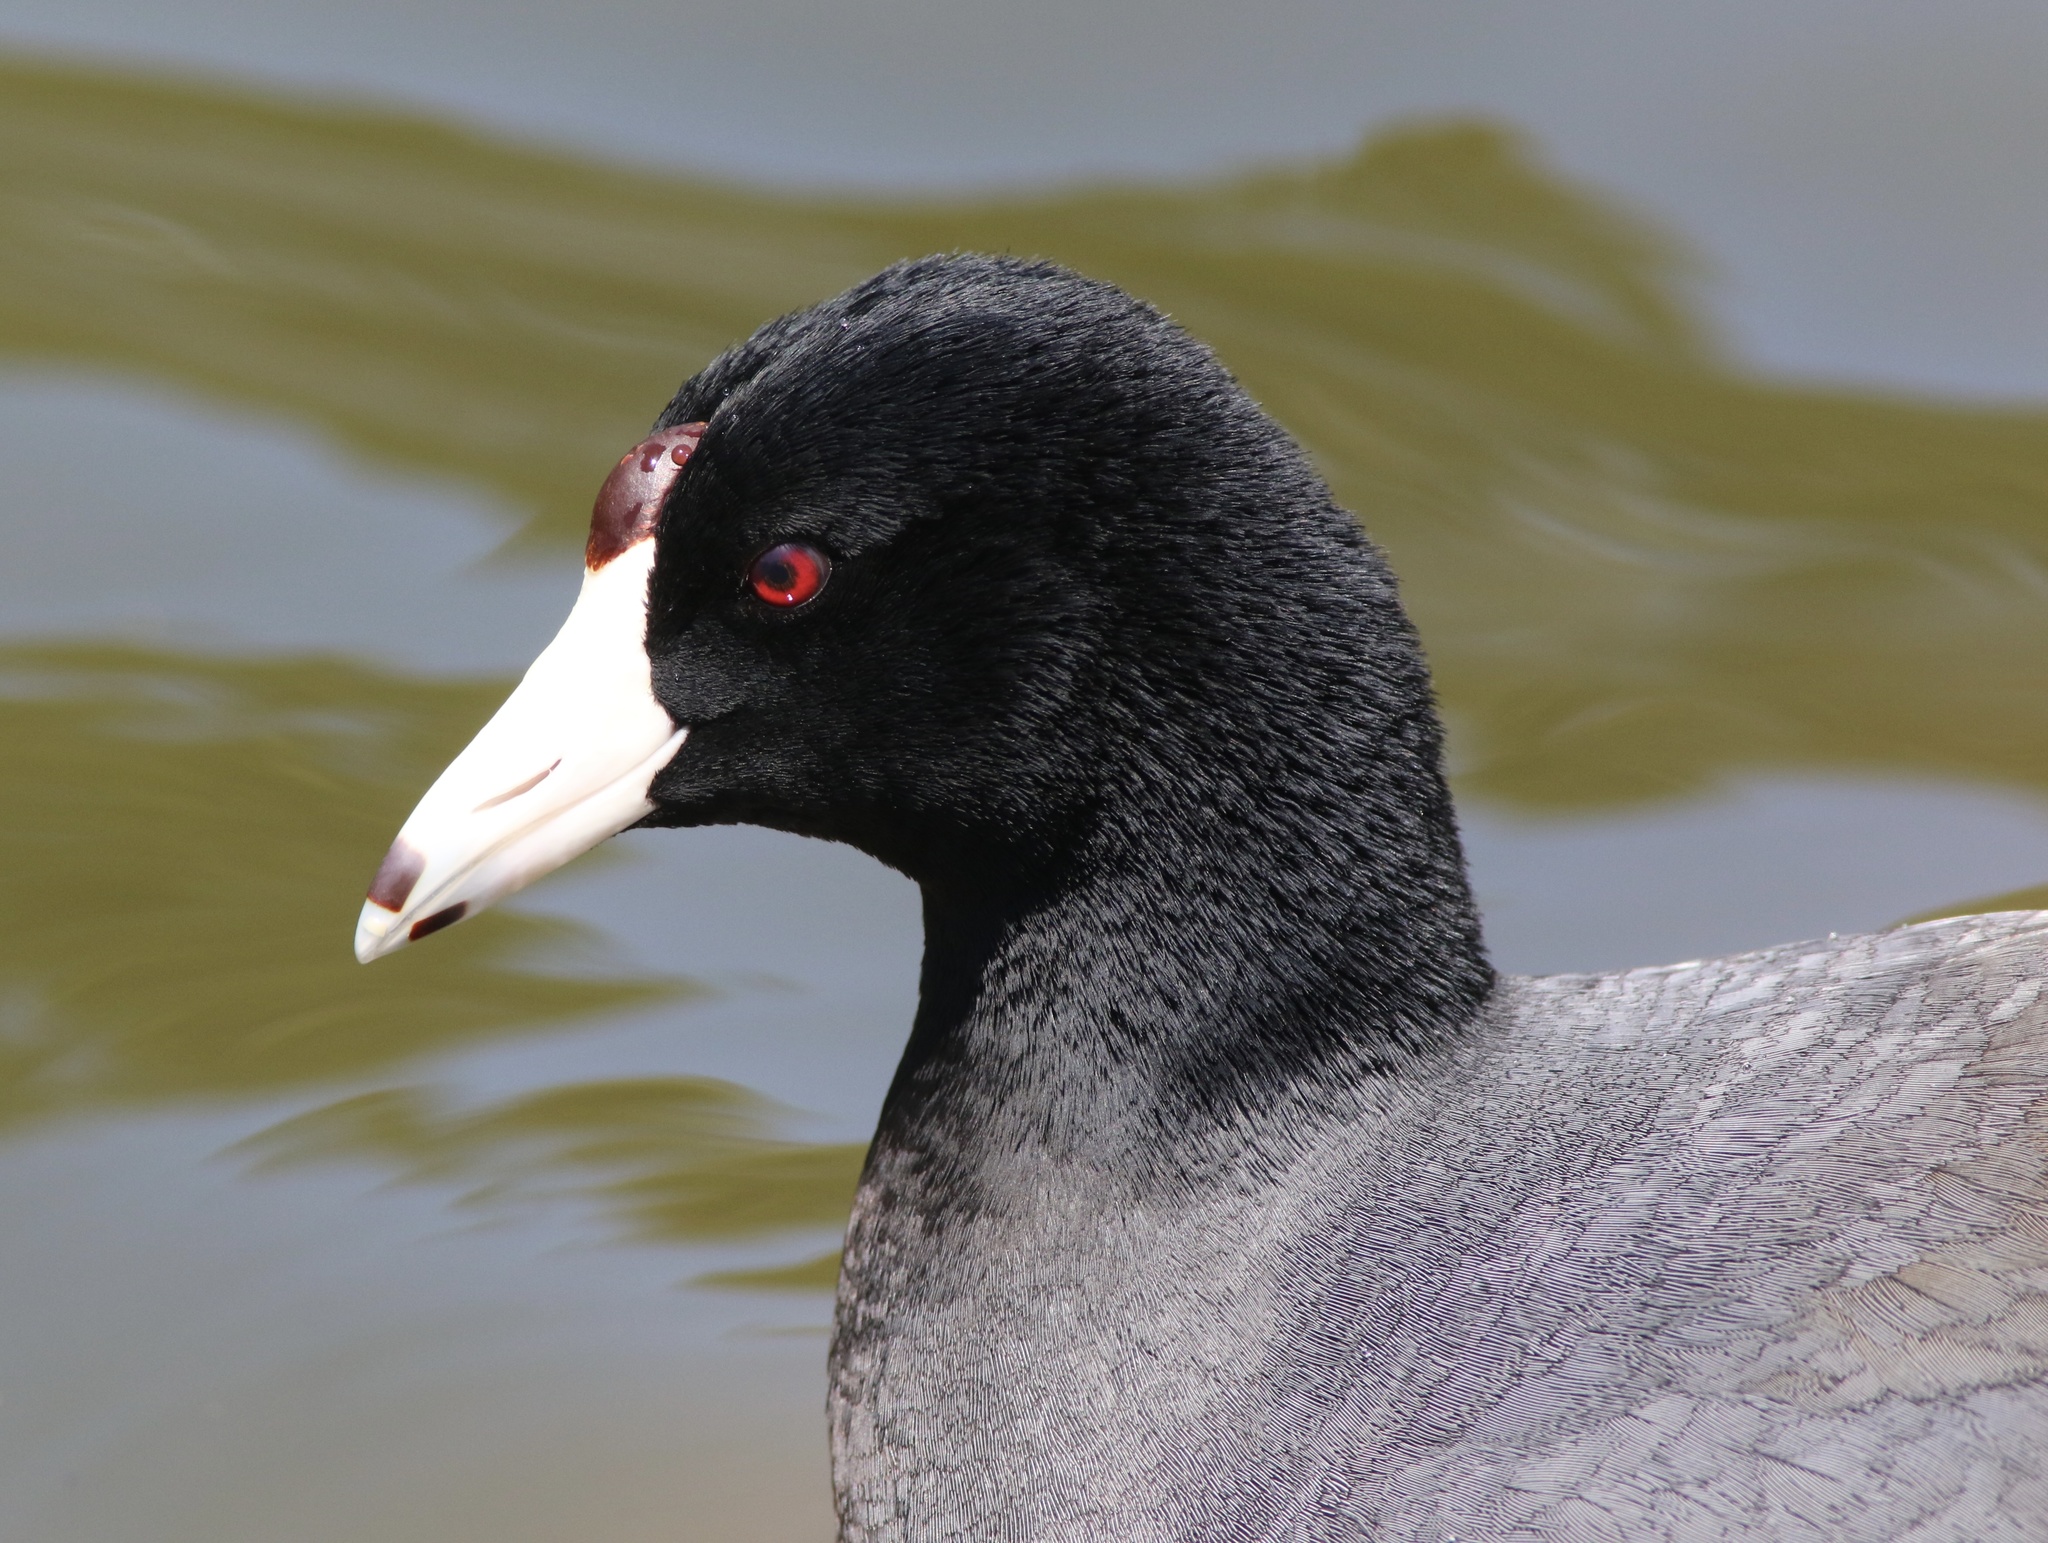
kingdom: Animalia
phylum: Chordata
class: Aves
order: Gruiformes
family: Rallidae
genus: Fulica
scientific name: Fulica americana
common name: American coot
